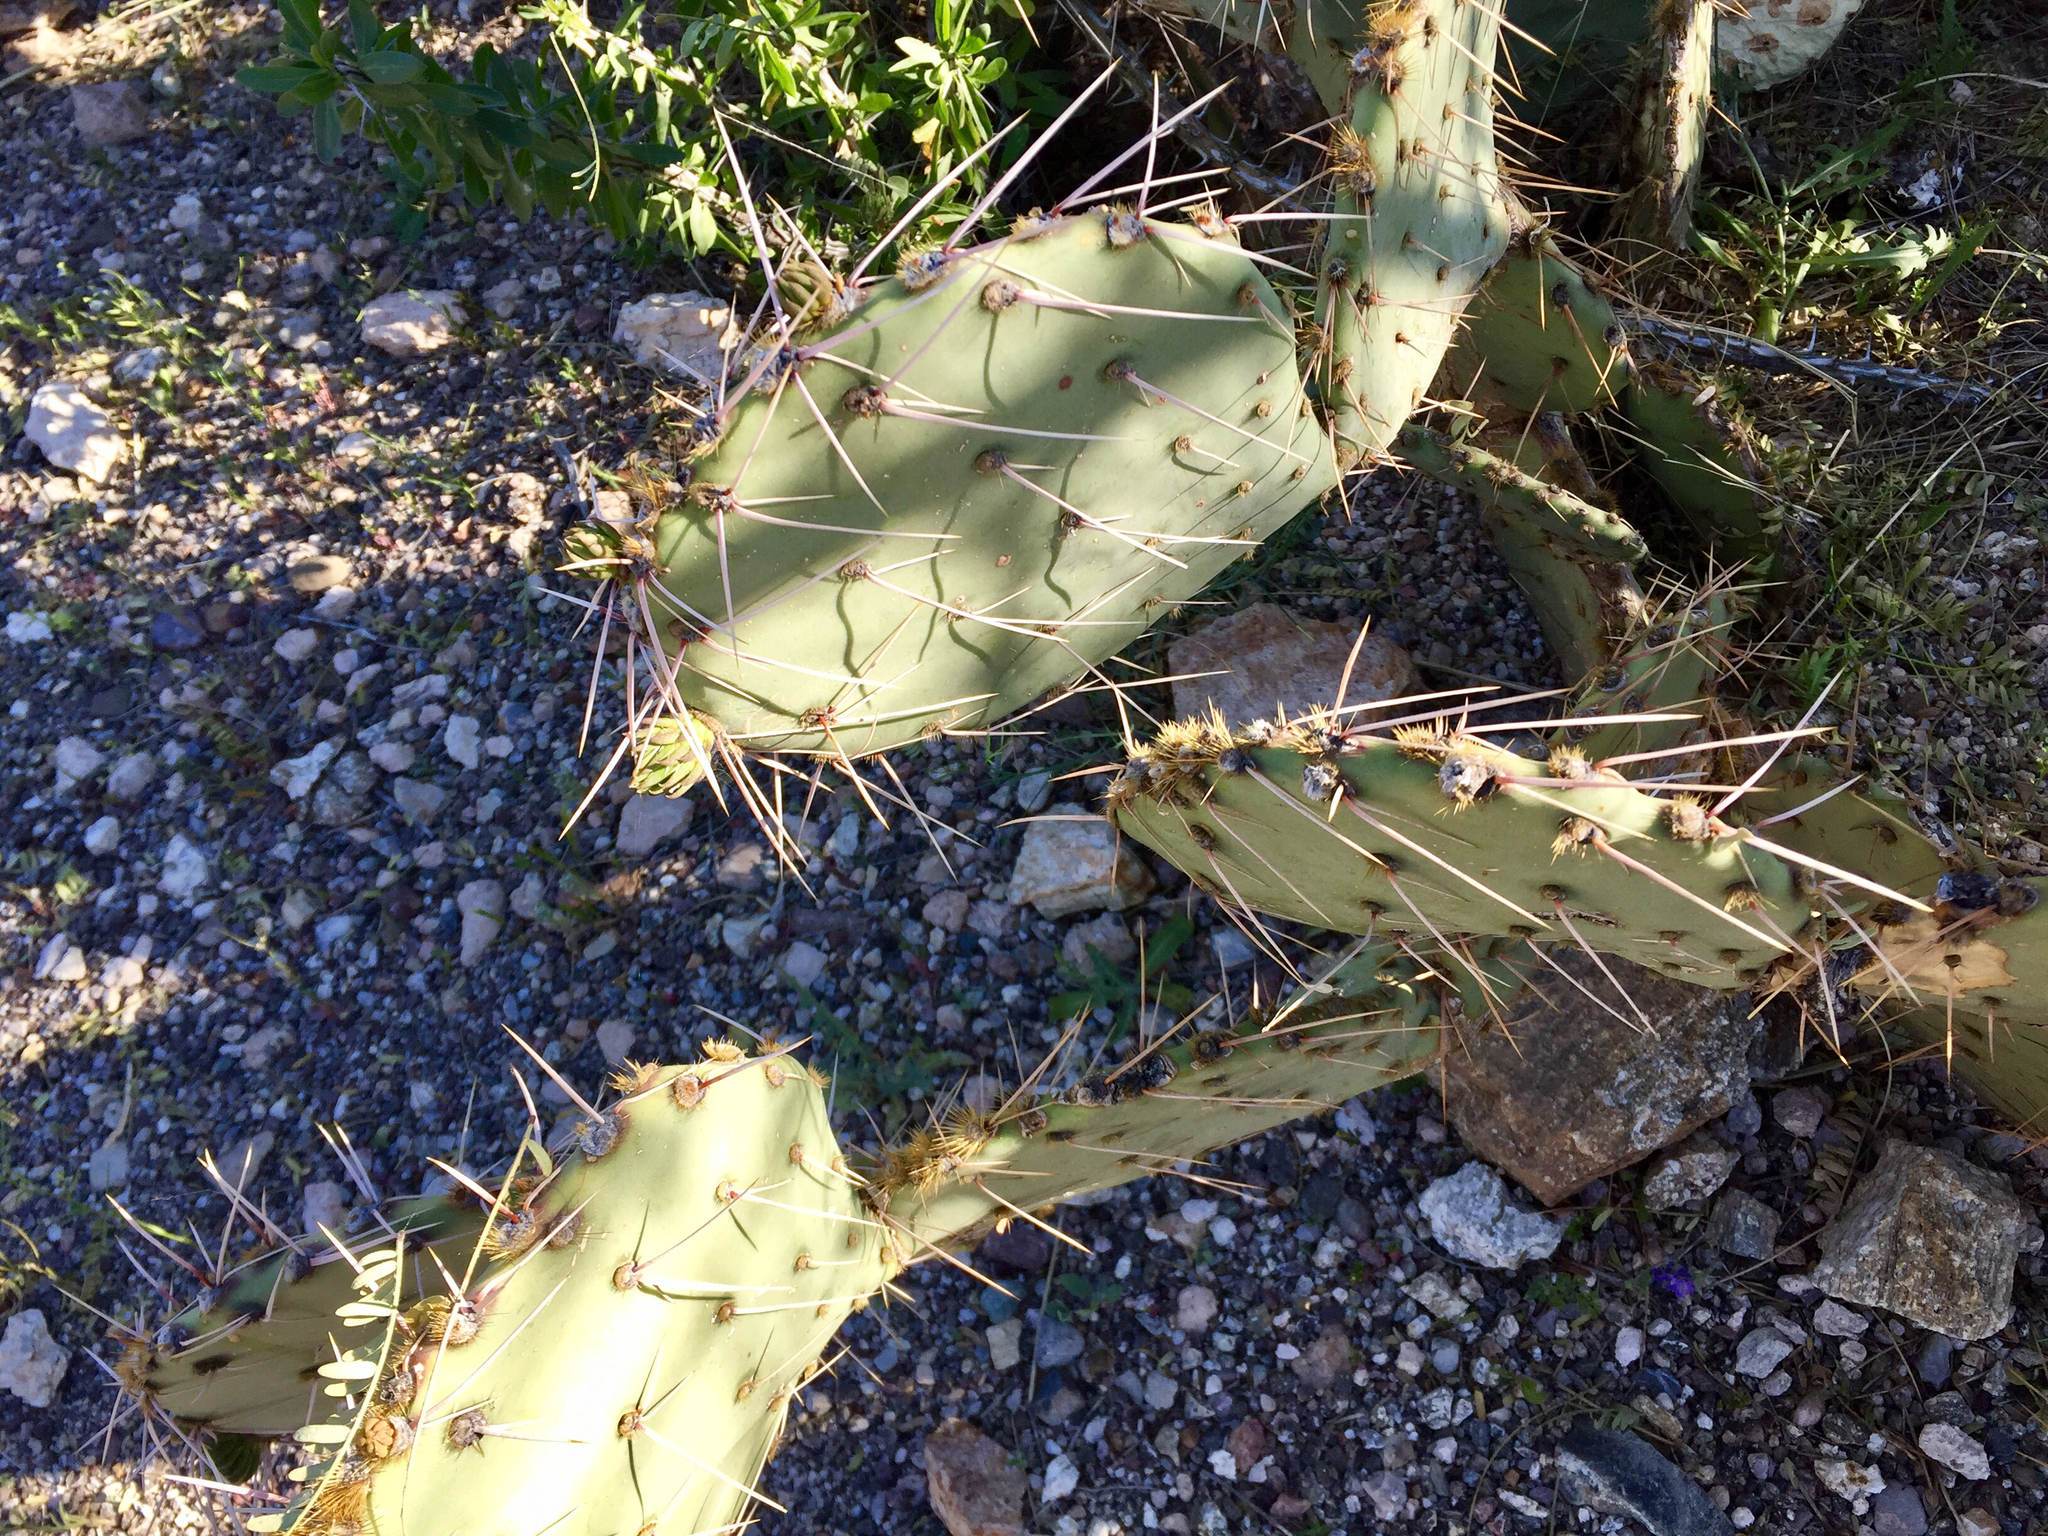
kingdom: Plantae
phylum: Tracheophyta
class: Magnoliopsida
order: Caryophyllales
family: Cactaceae
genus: Opuntia
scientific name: Opuntia engelmannii
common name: Cactus-apple
